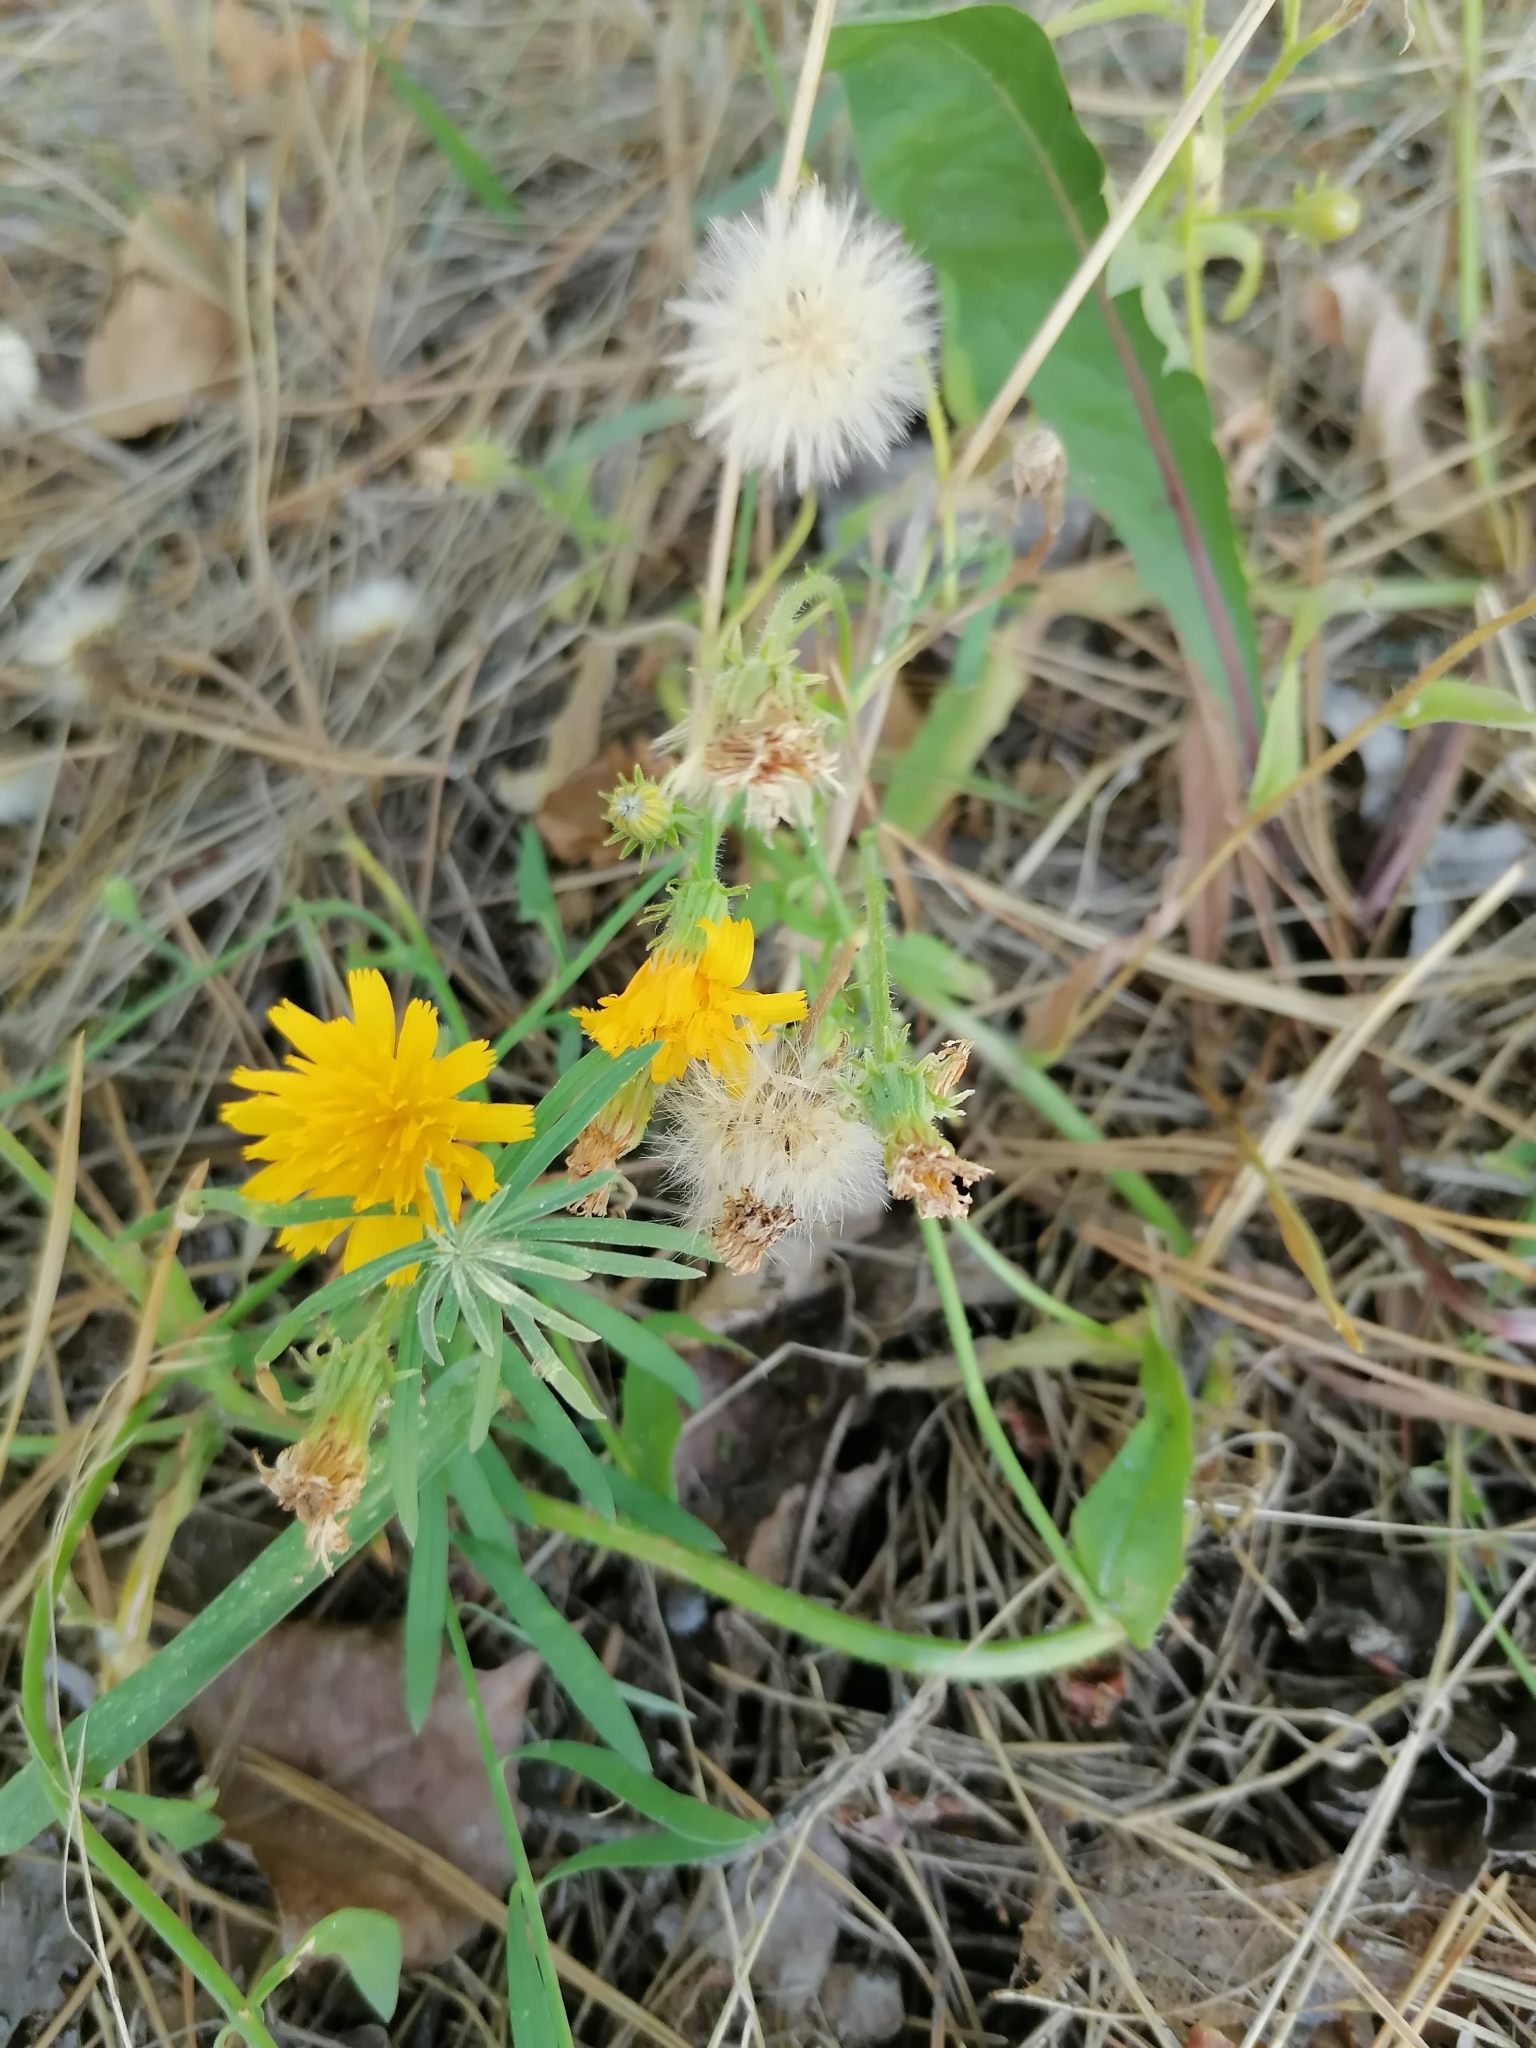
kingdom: Plantae
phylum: Tracheophyta
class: Magnoliopsida
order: Asterales
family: Asteraceae
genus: Picris
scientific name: Picris hieracioides
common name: Hawkweed oxtongue
